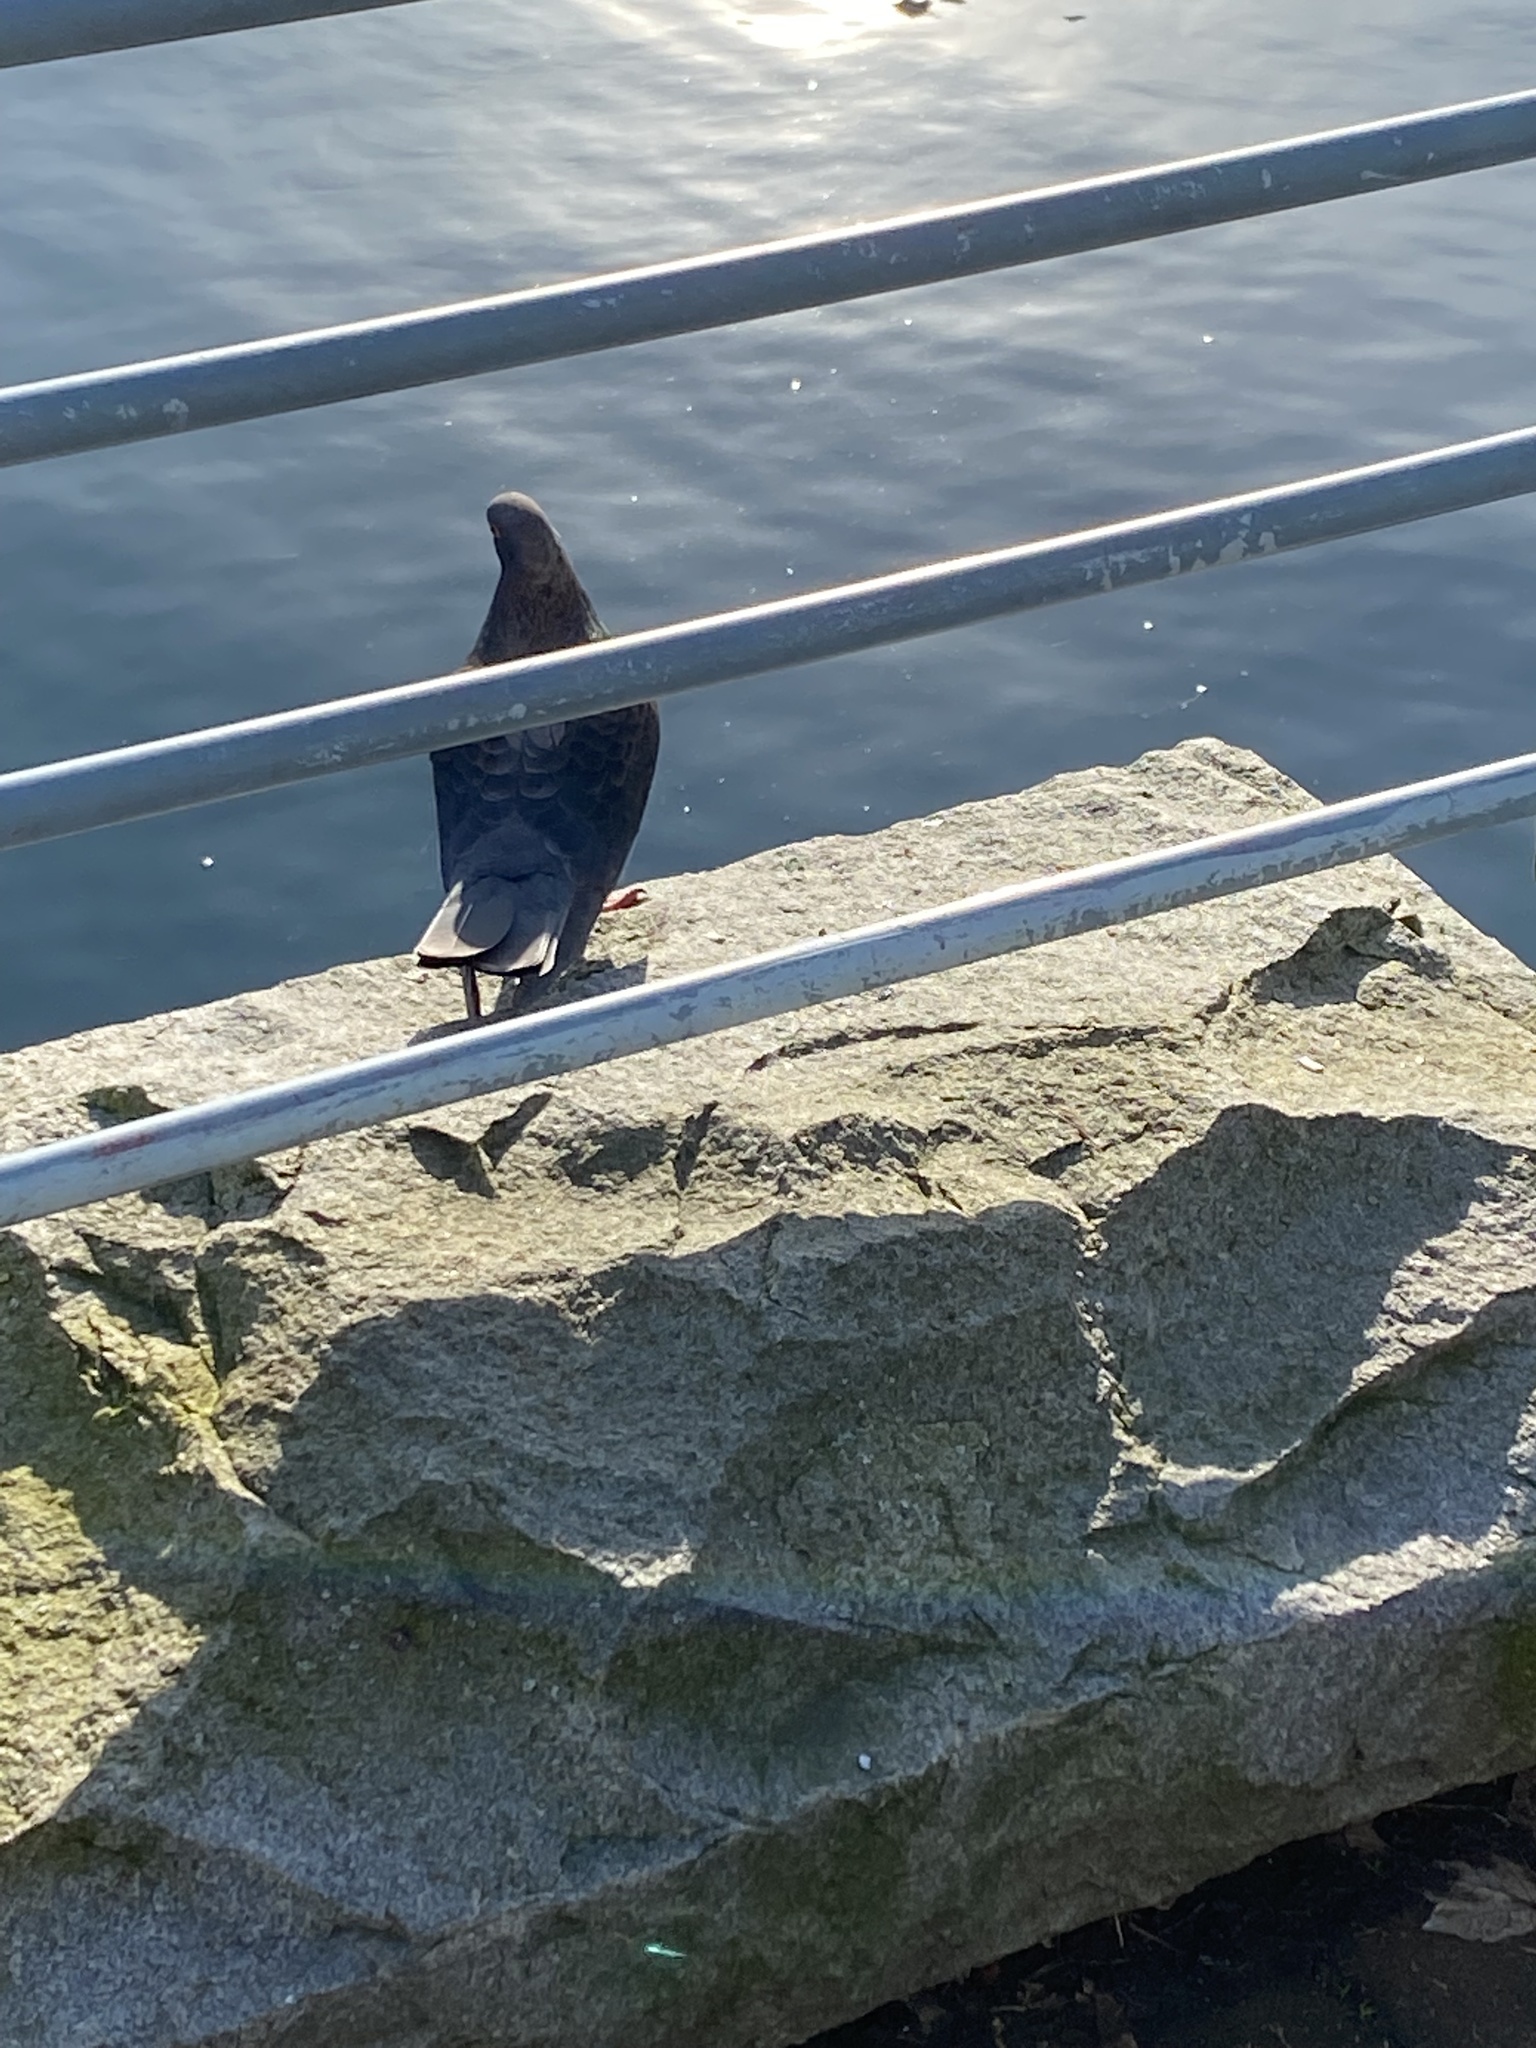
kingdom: Animalia
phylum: Chordata
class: Aves
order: Columbiformes
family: Columbidae
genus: Columba
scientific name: Columba livia
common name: Rock pigeon
